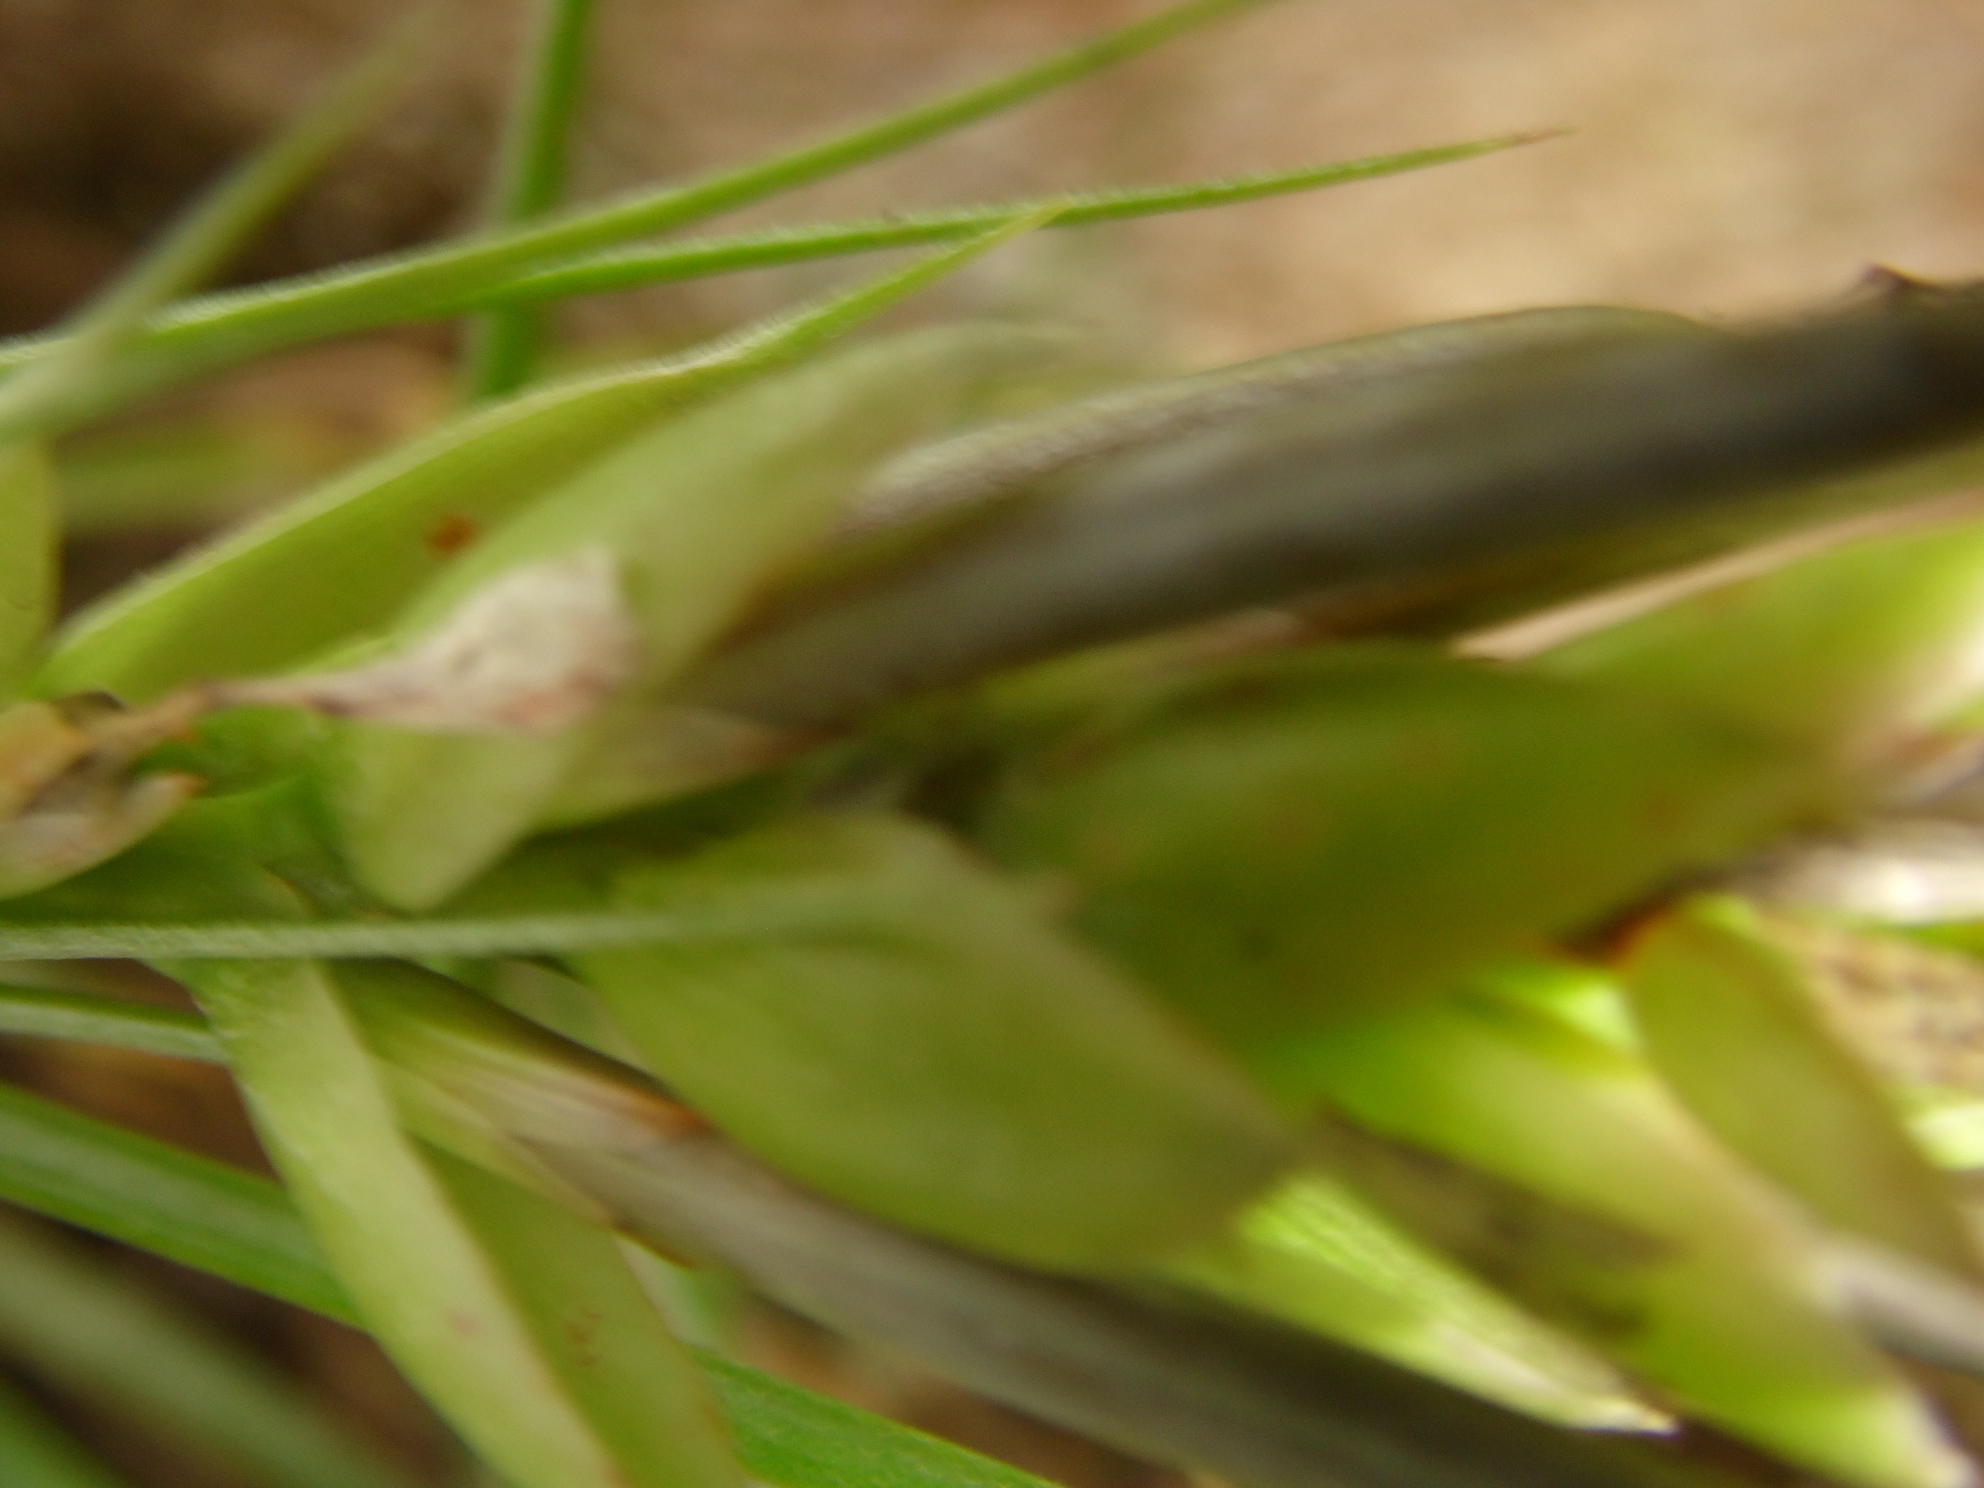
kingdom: Plantae
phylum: Tracheophyta
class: Liliopsida
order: Poales
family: Bromeliaceae
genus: Tillandsia
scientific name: Tillandsia stricta
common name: Airplant
